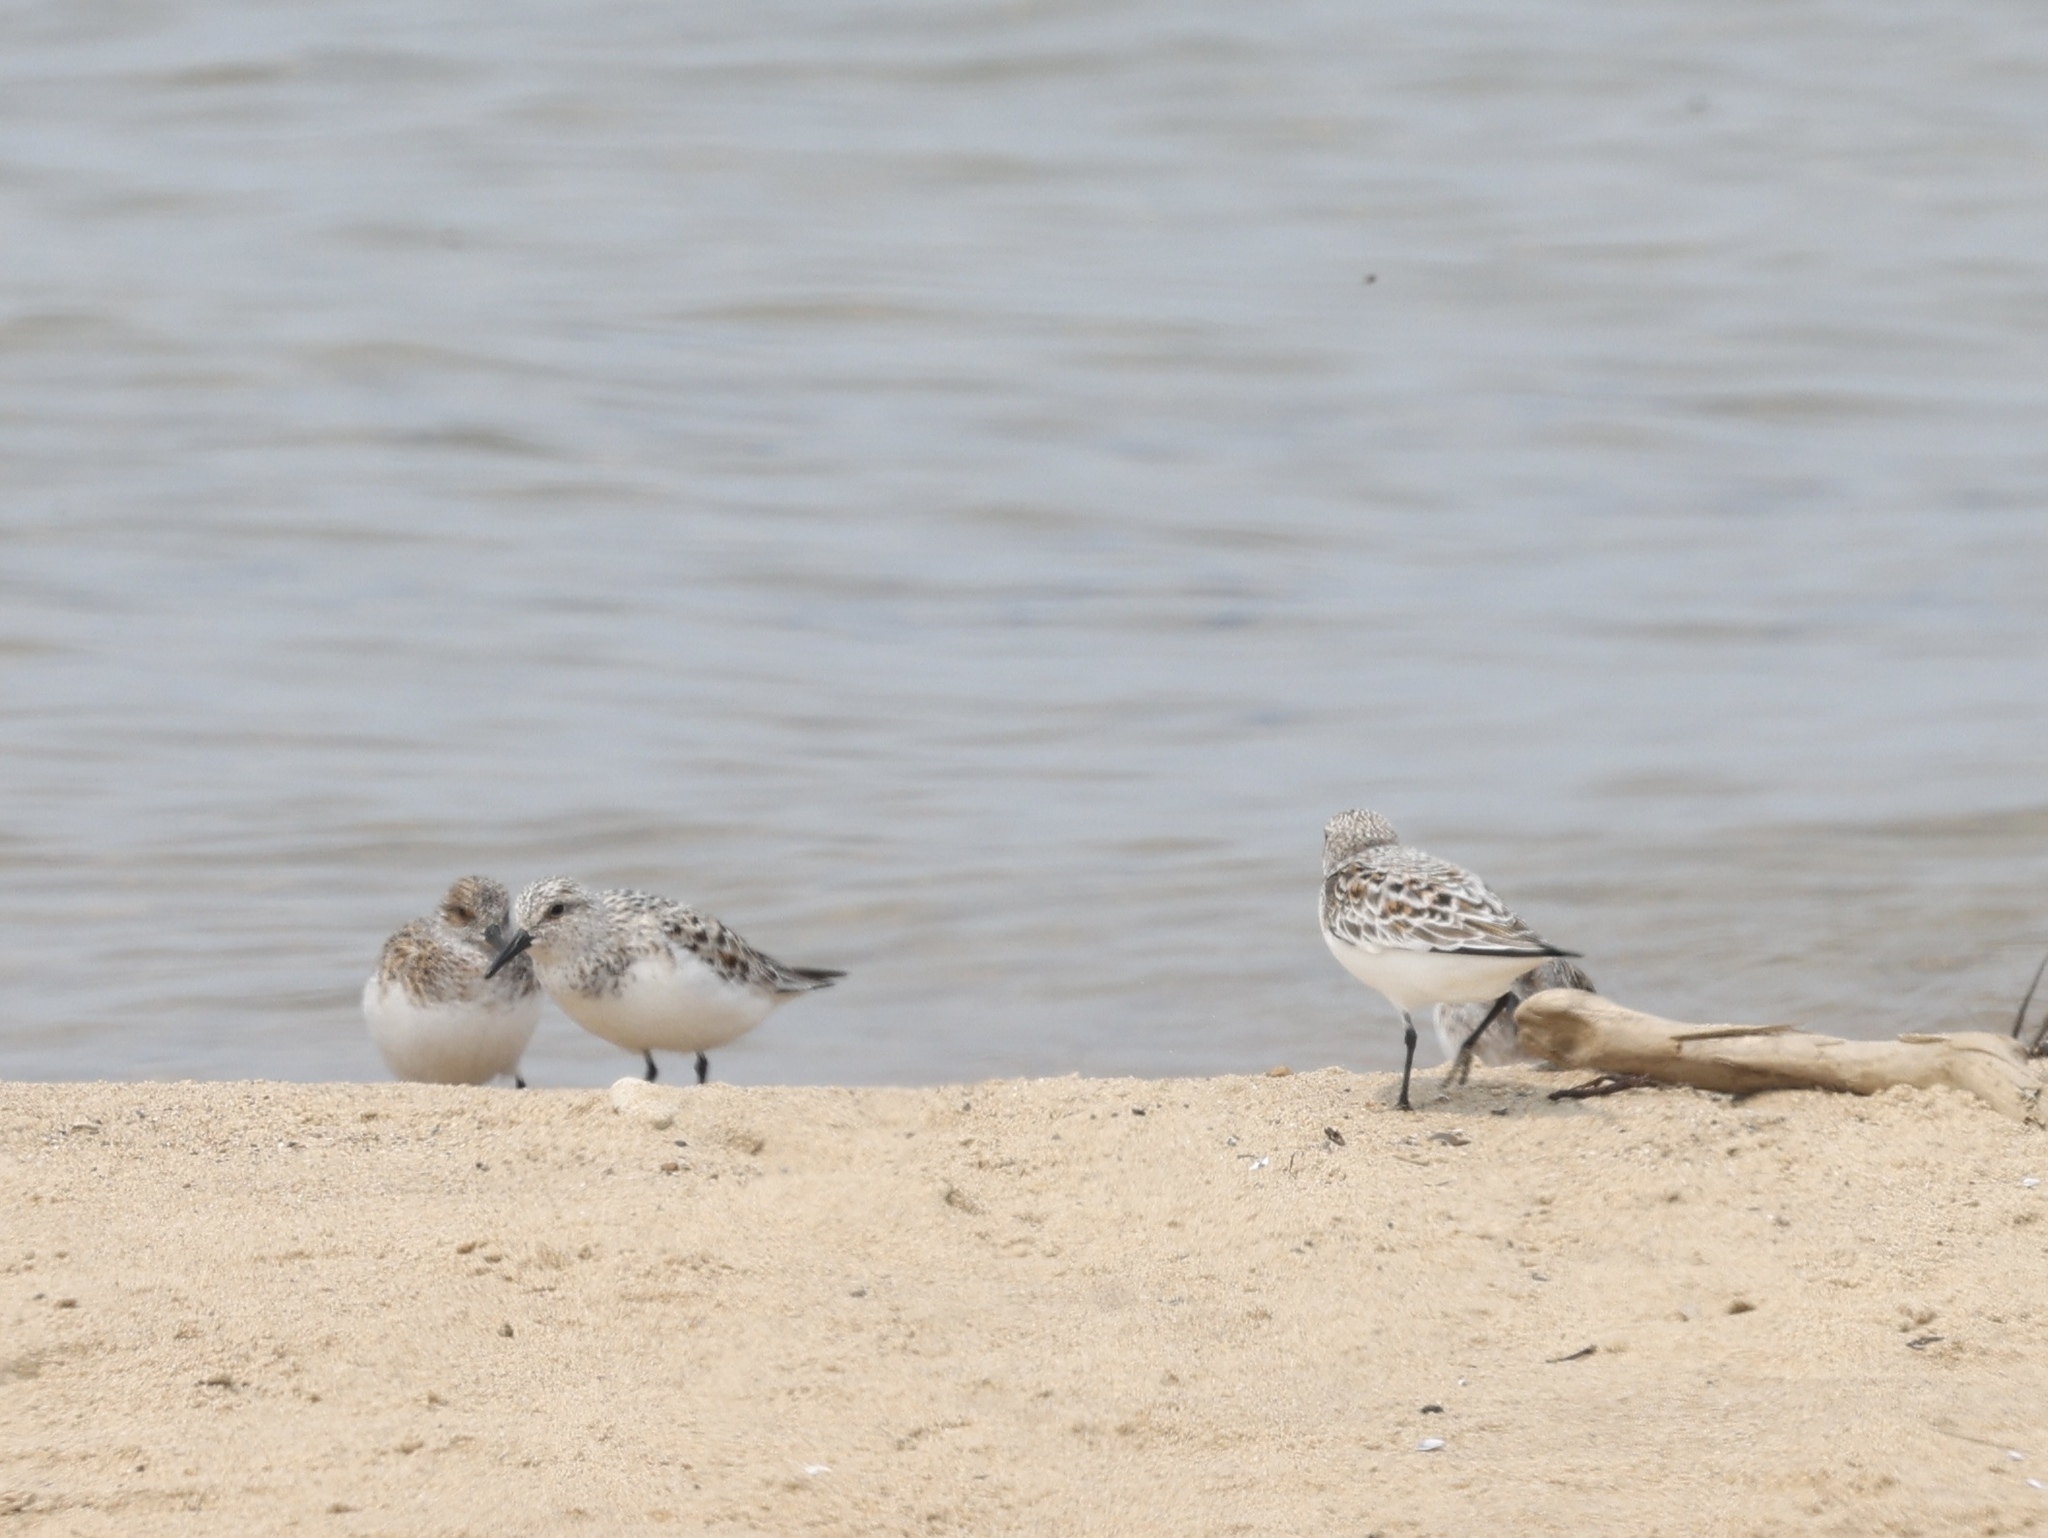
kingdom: Animalia
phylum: Chordata
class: Aves
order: Charadriiformes
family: Scolopacidae
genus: Calidris
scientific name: Calidris alba
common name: Sanderling
